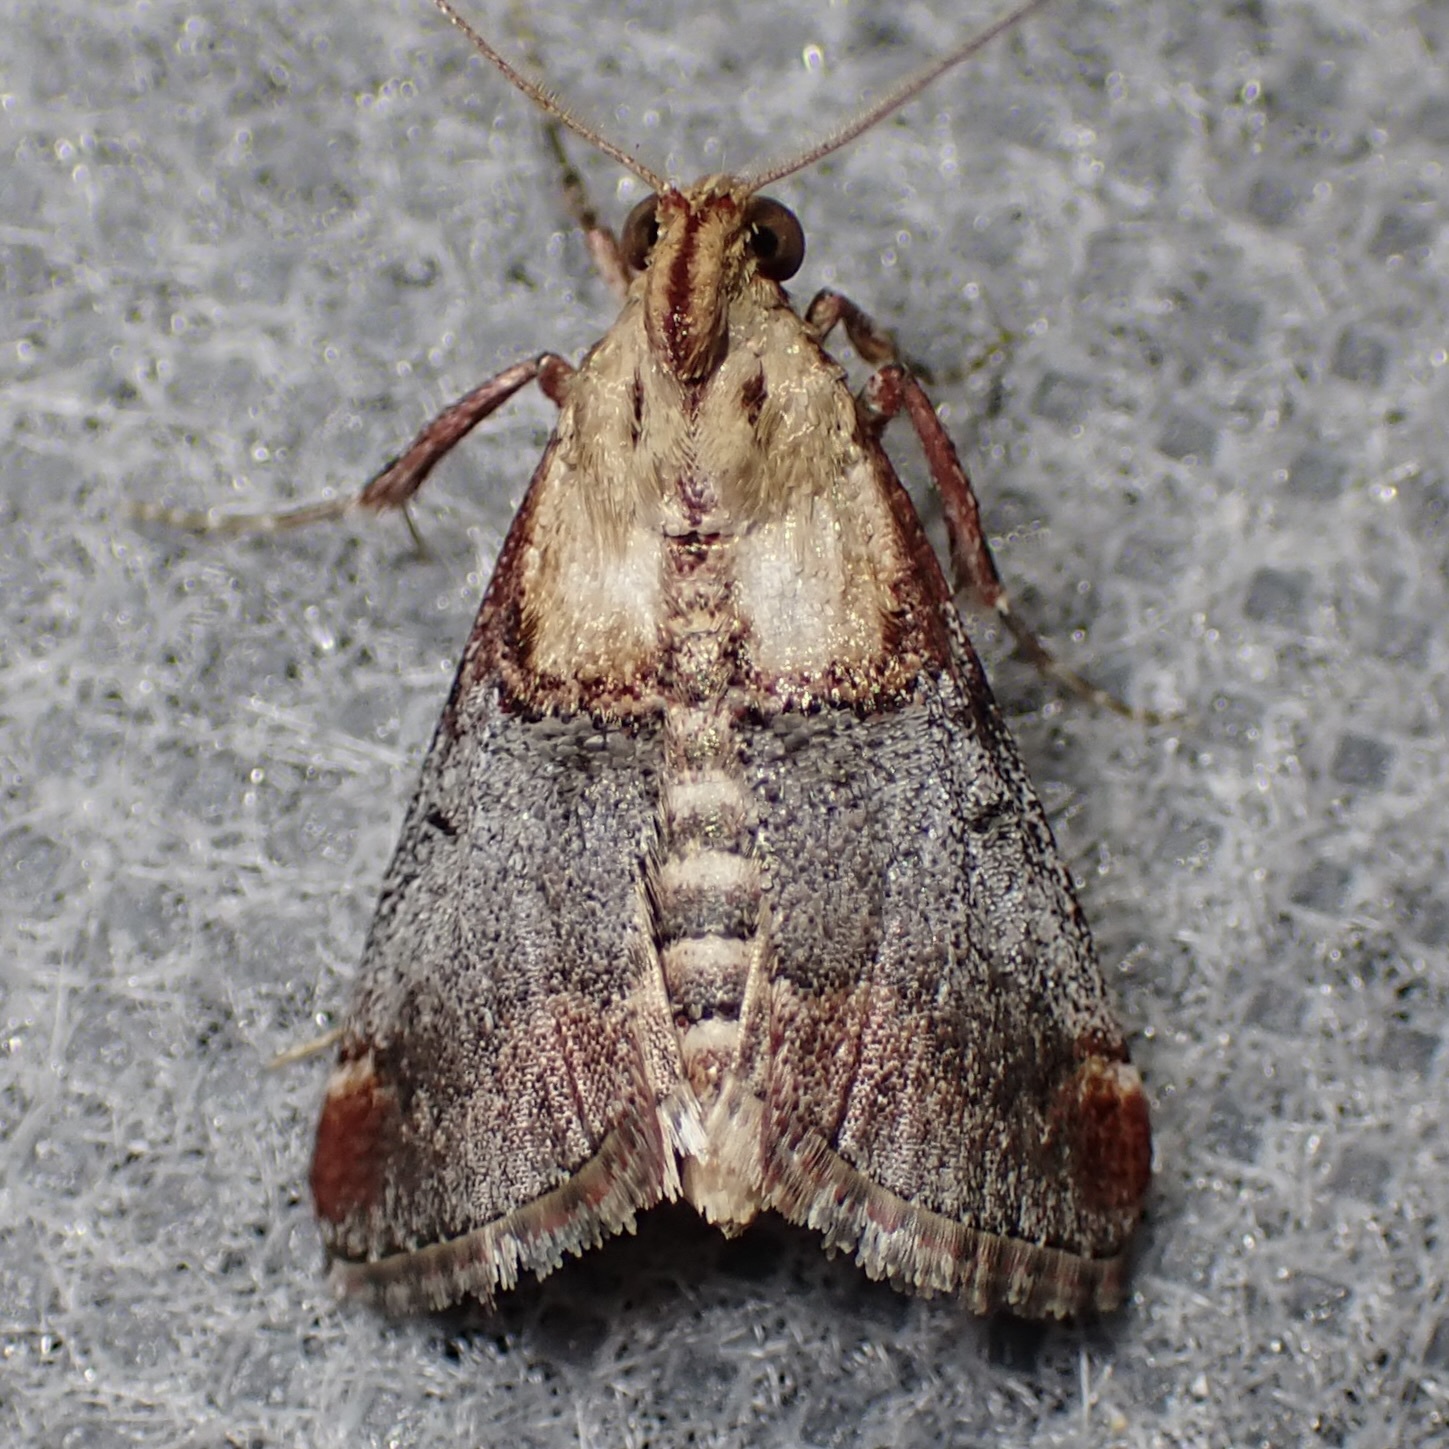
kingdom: Animalia
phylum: Arthropoda
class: Insecta
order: Lepidoptera
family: Pyralidae
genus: Cacozelia
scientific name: Cacozelia basiochrealis
